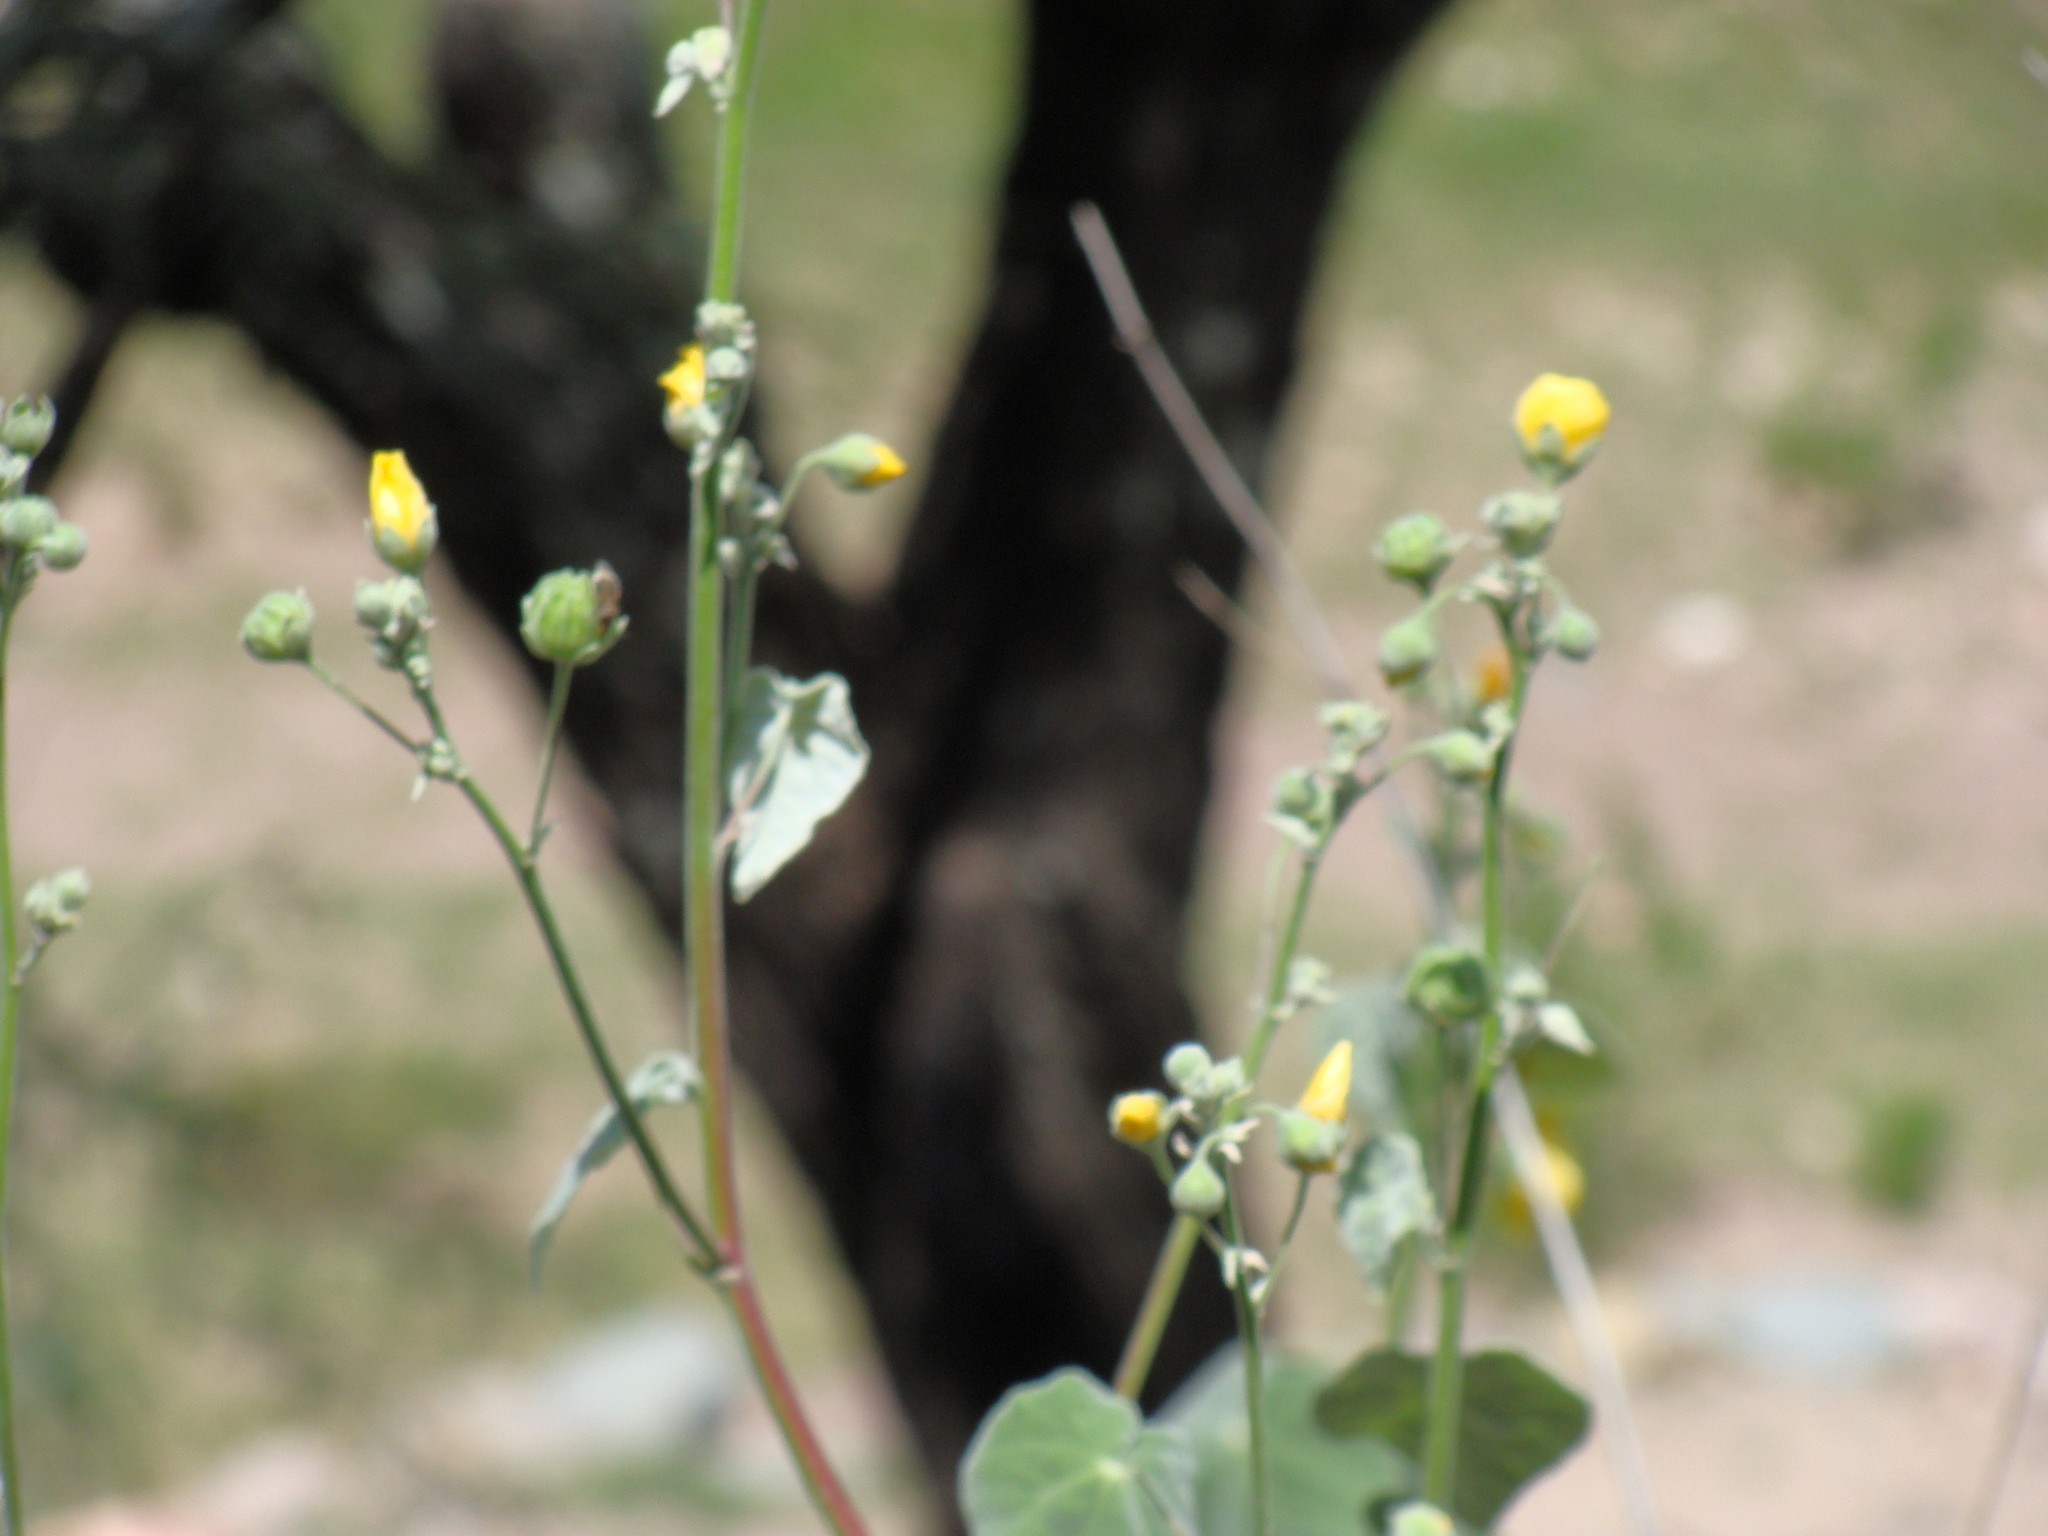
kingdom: Plantae
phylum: Tracheophyta
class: Magnoliopsida
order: Malvales
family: Malvaceae
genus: Abutilon
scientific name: Abutilon reventum
